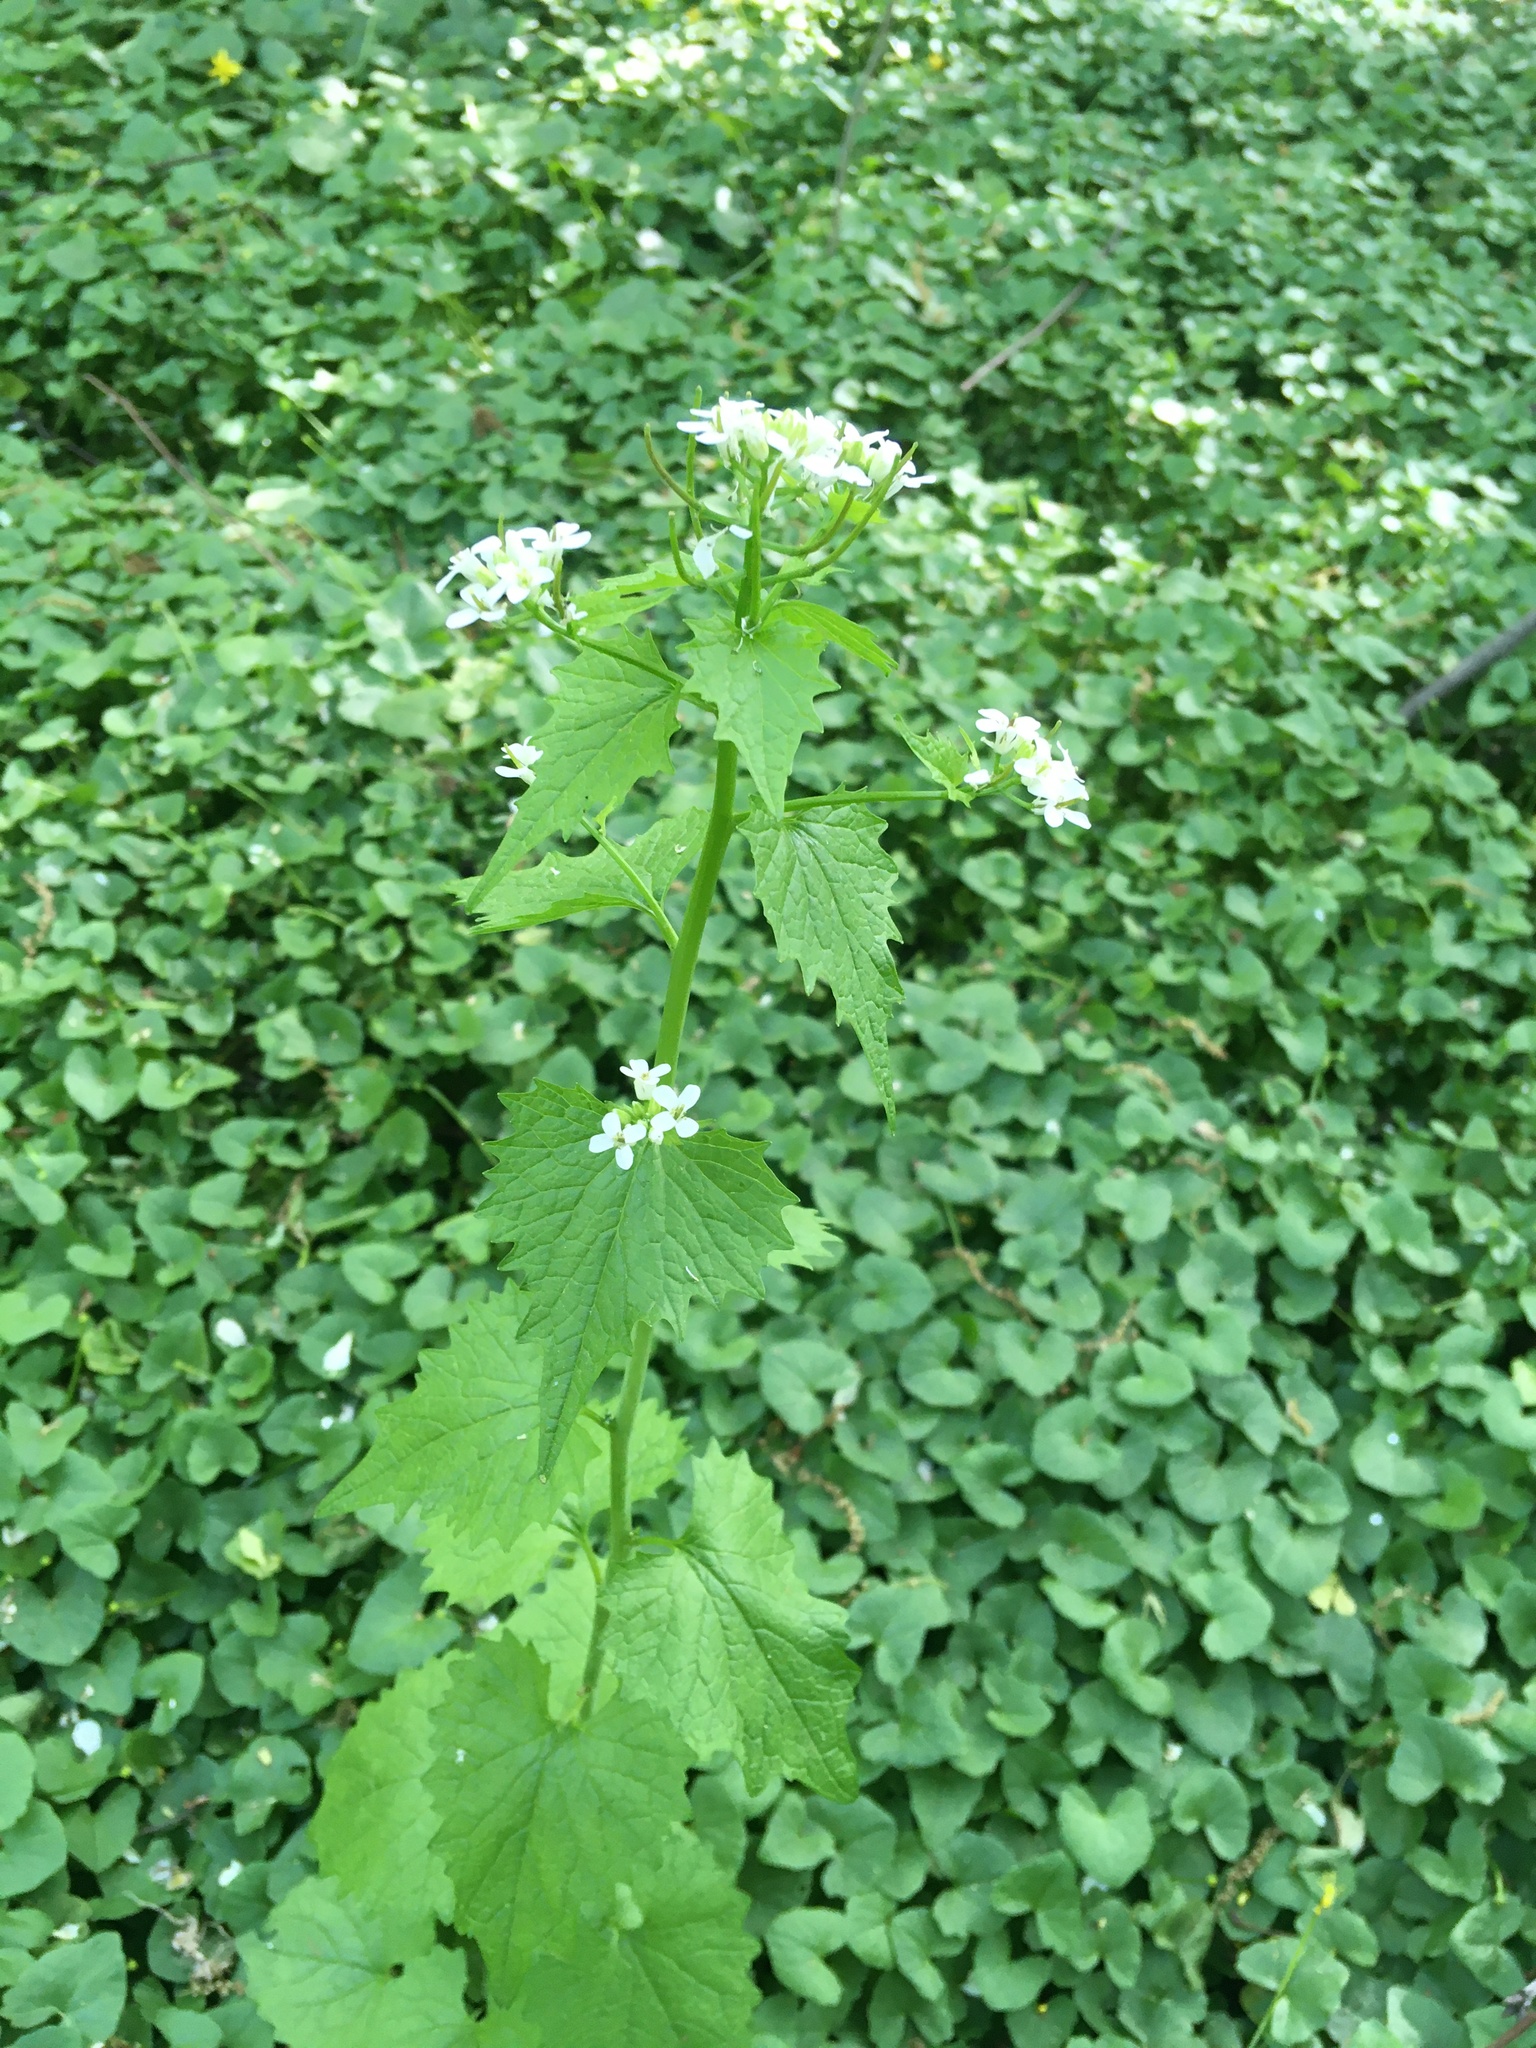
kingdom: Plantae
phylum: Tracheophyta
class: Magnoliopsida
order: Brassicales
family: Brassicaceae
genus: Alliaria
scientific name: Alliaria petiolata
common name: Garlic mustard
